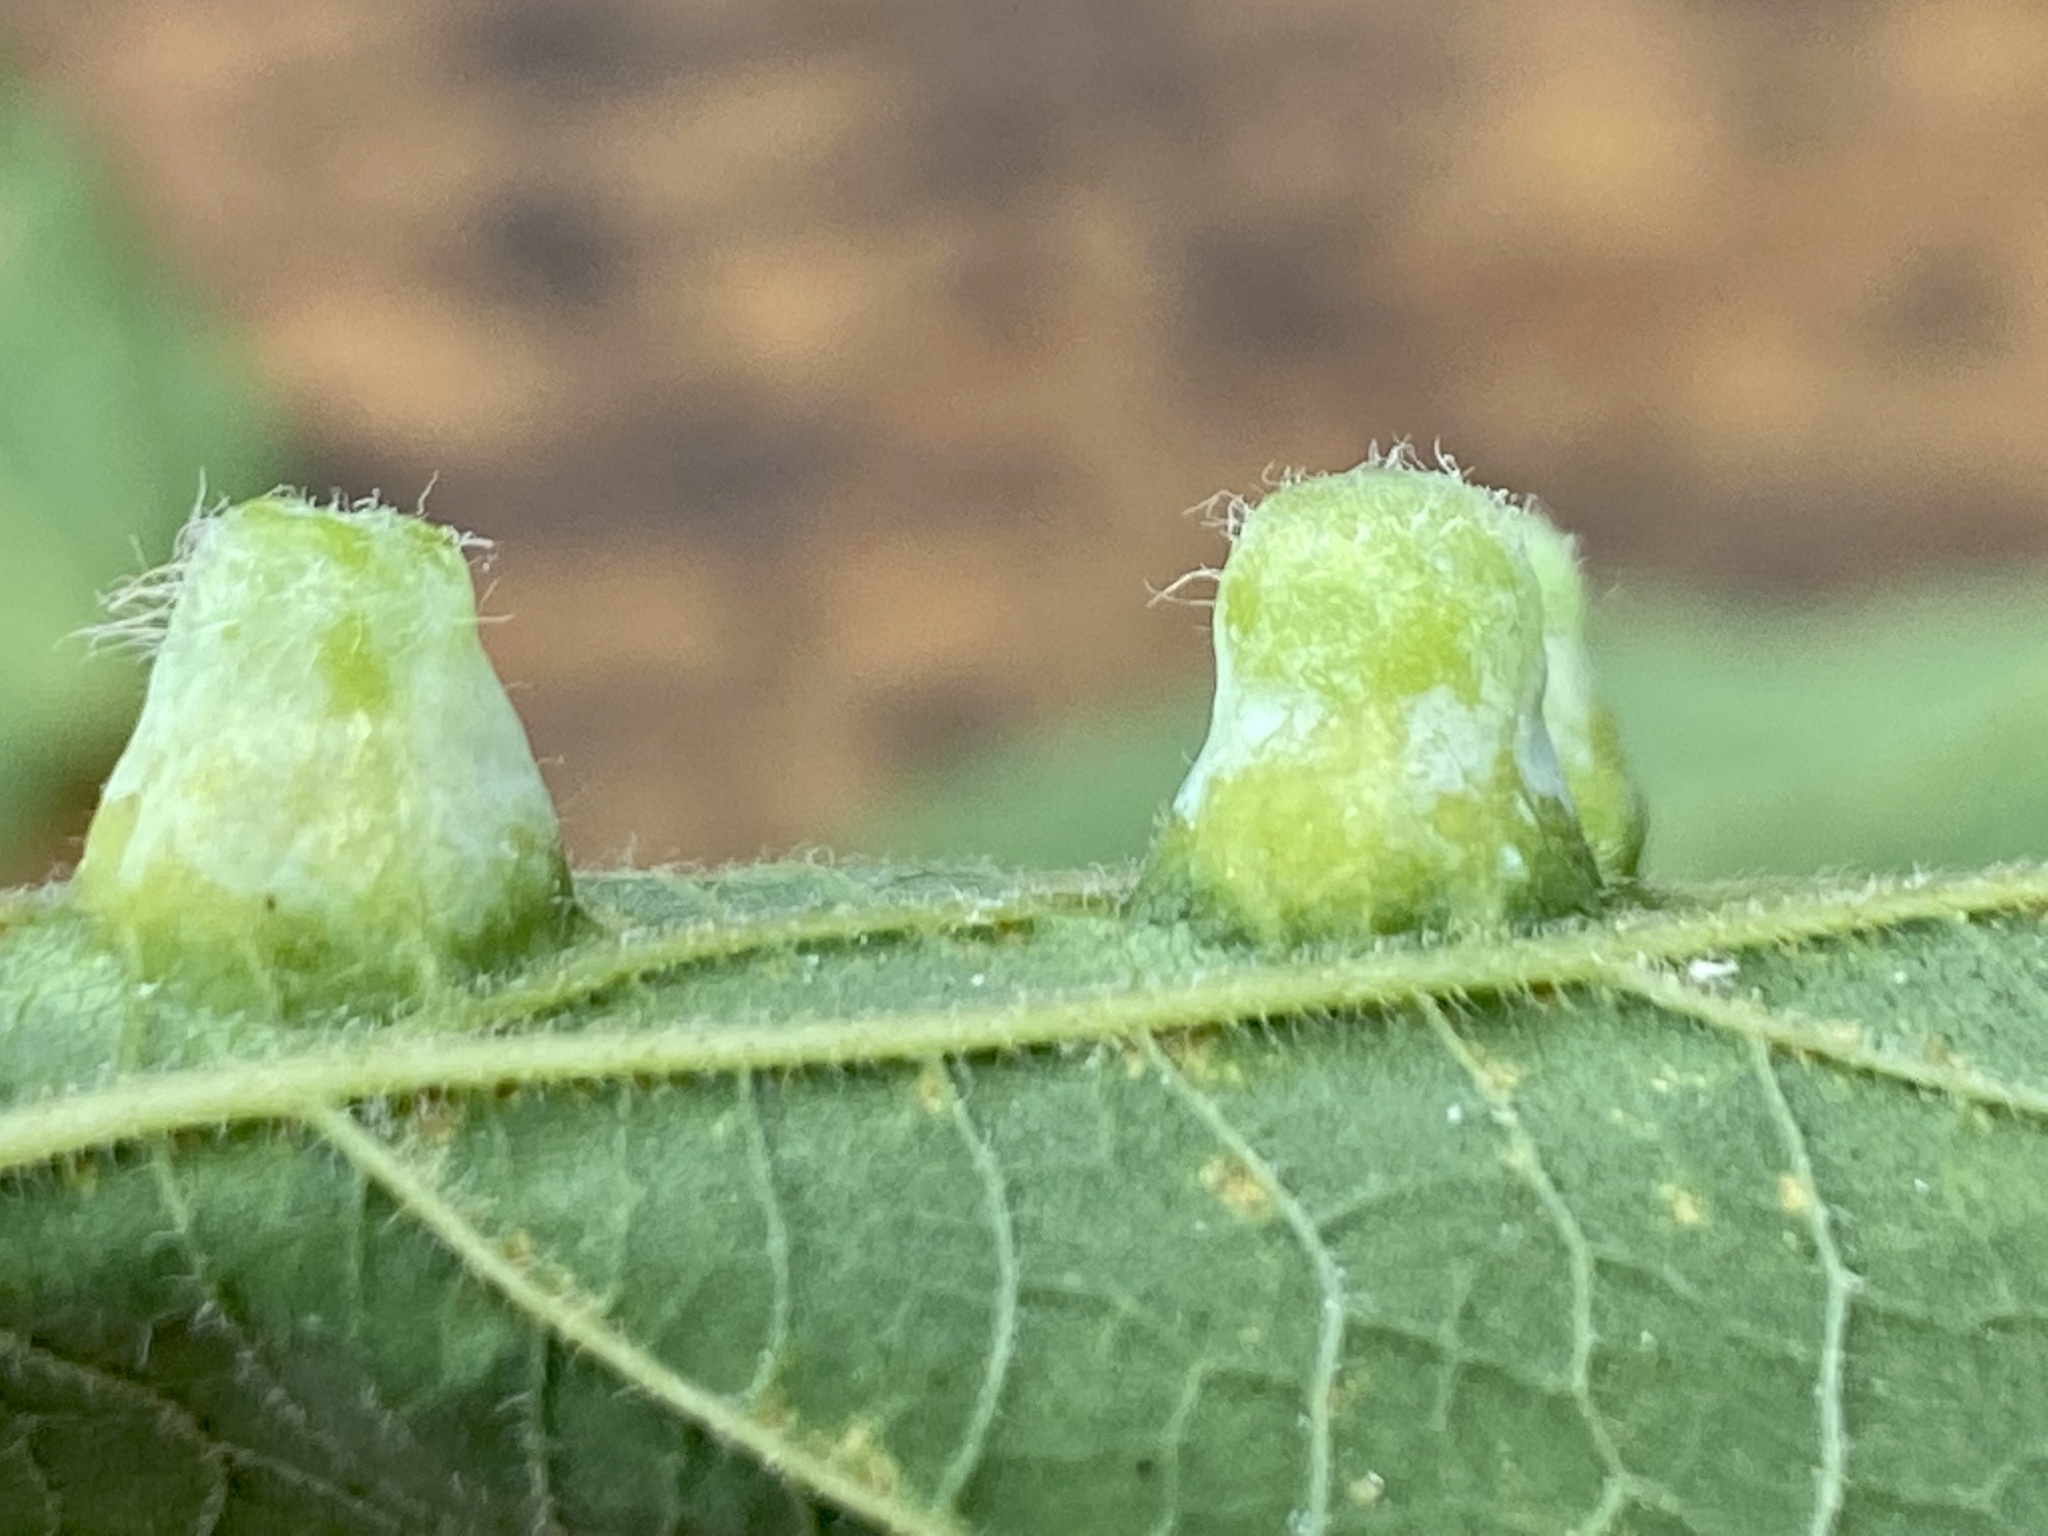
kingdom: Animalia
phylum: Arthropoda
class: Insecta
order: Hemiptera
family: Aphalaridae
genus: Pachypsylla
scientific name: Pachypsylla celtidismamma
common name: Hackberry nipplegall psyllid
